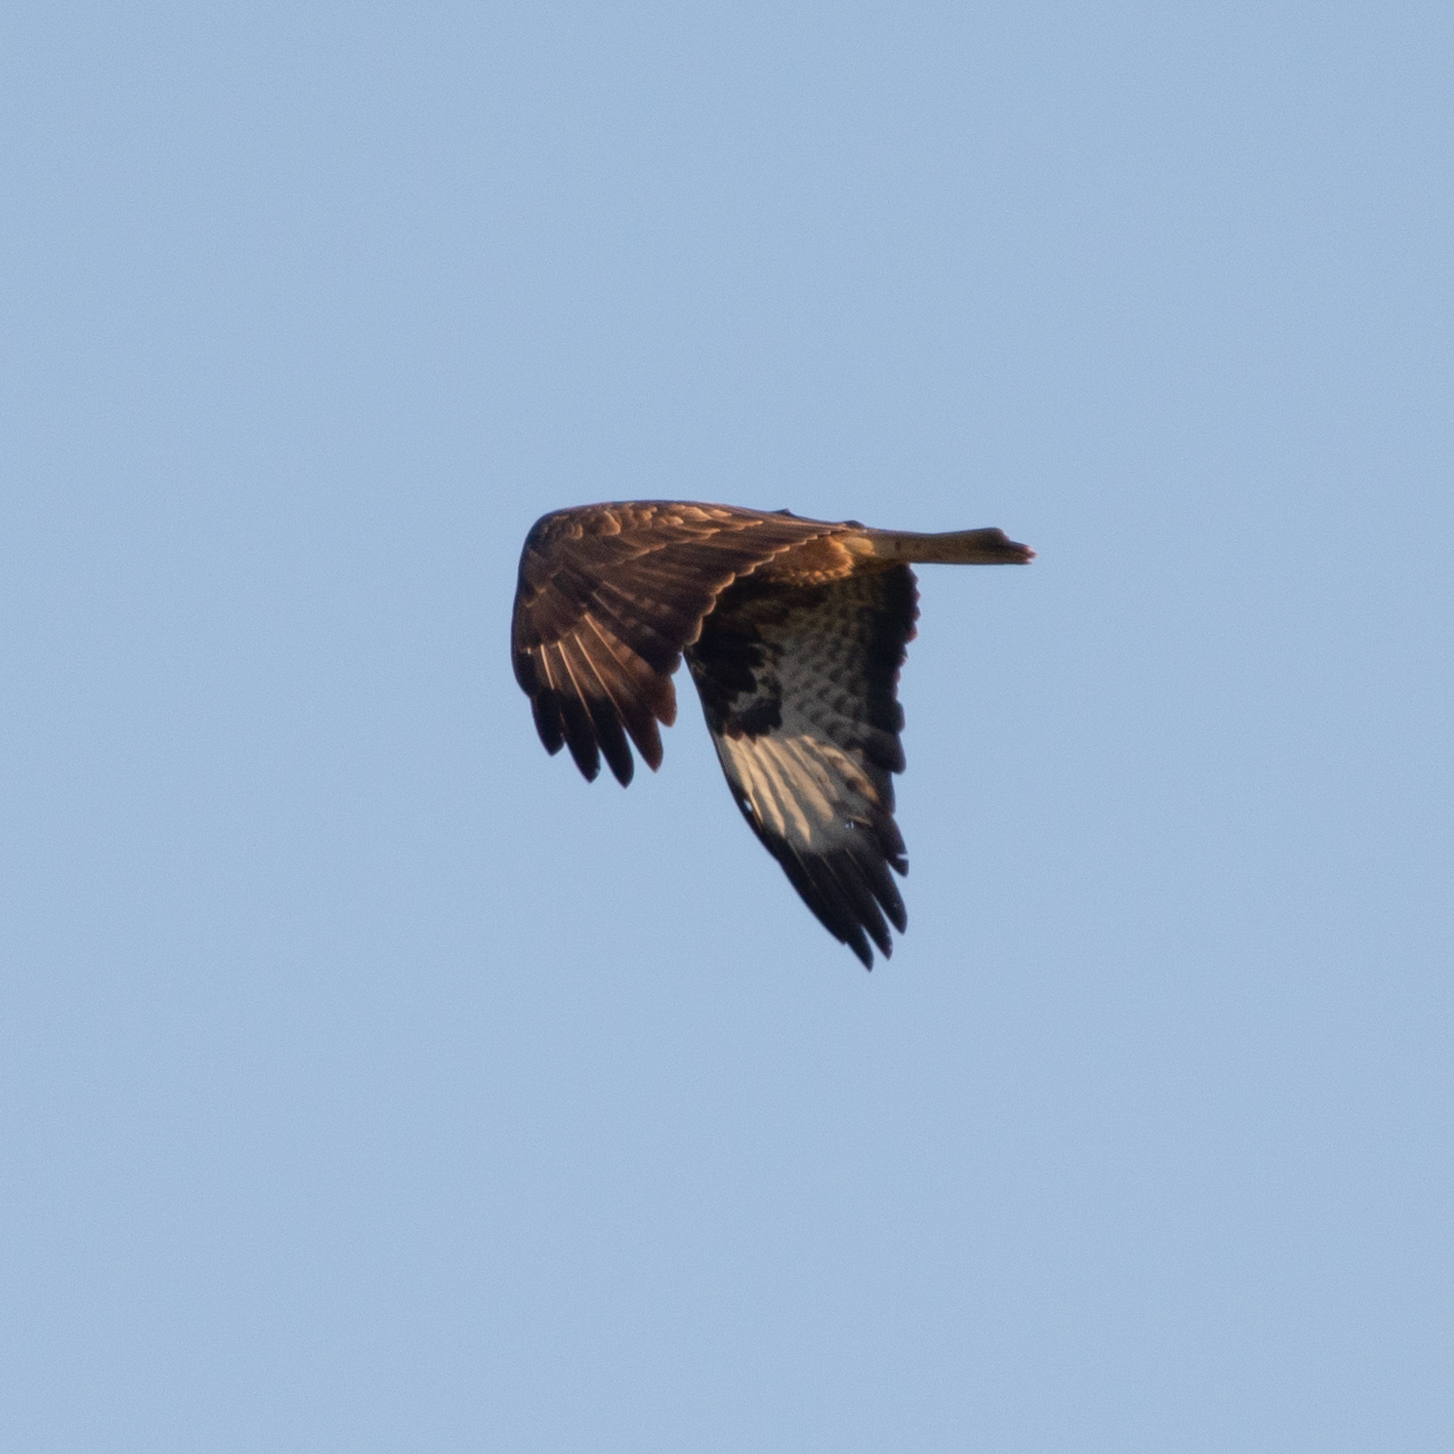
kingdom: Animalia
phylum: Chordata
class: Aves
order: Accipitriformes
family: Accipitridae
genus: Buteo
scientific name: Buteo buteo
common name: Common buzzard
